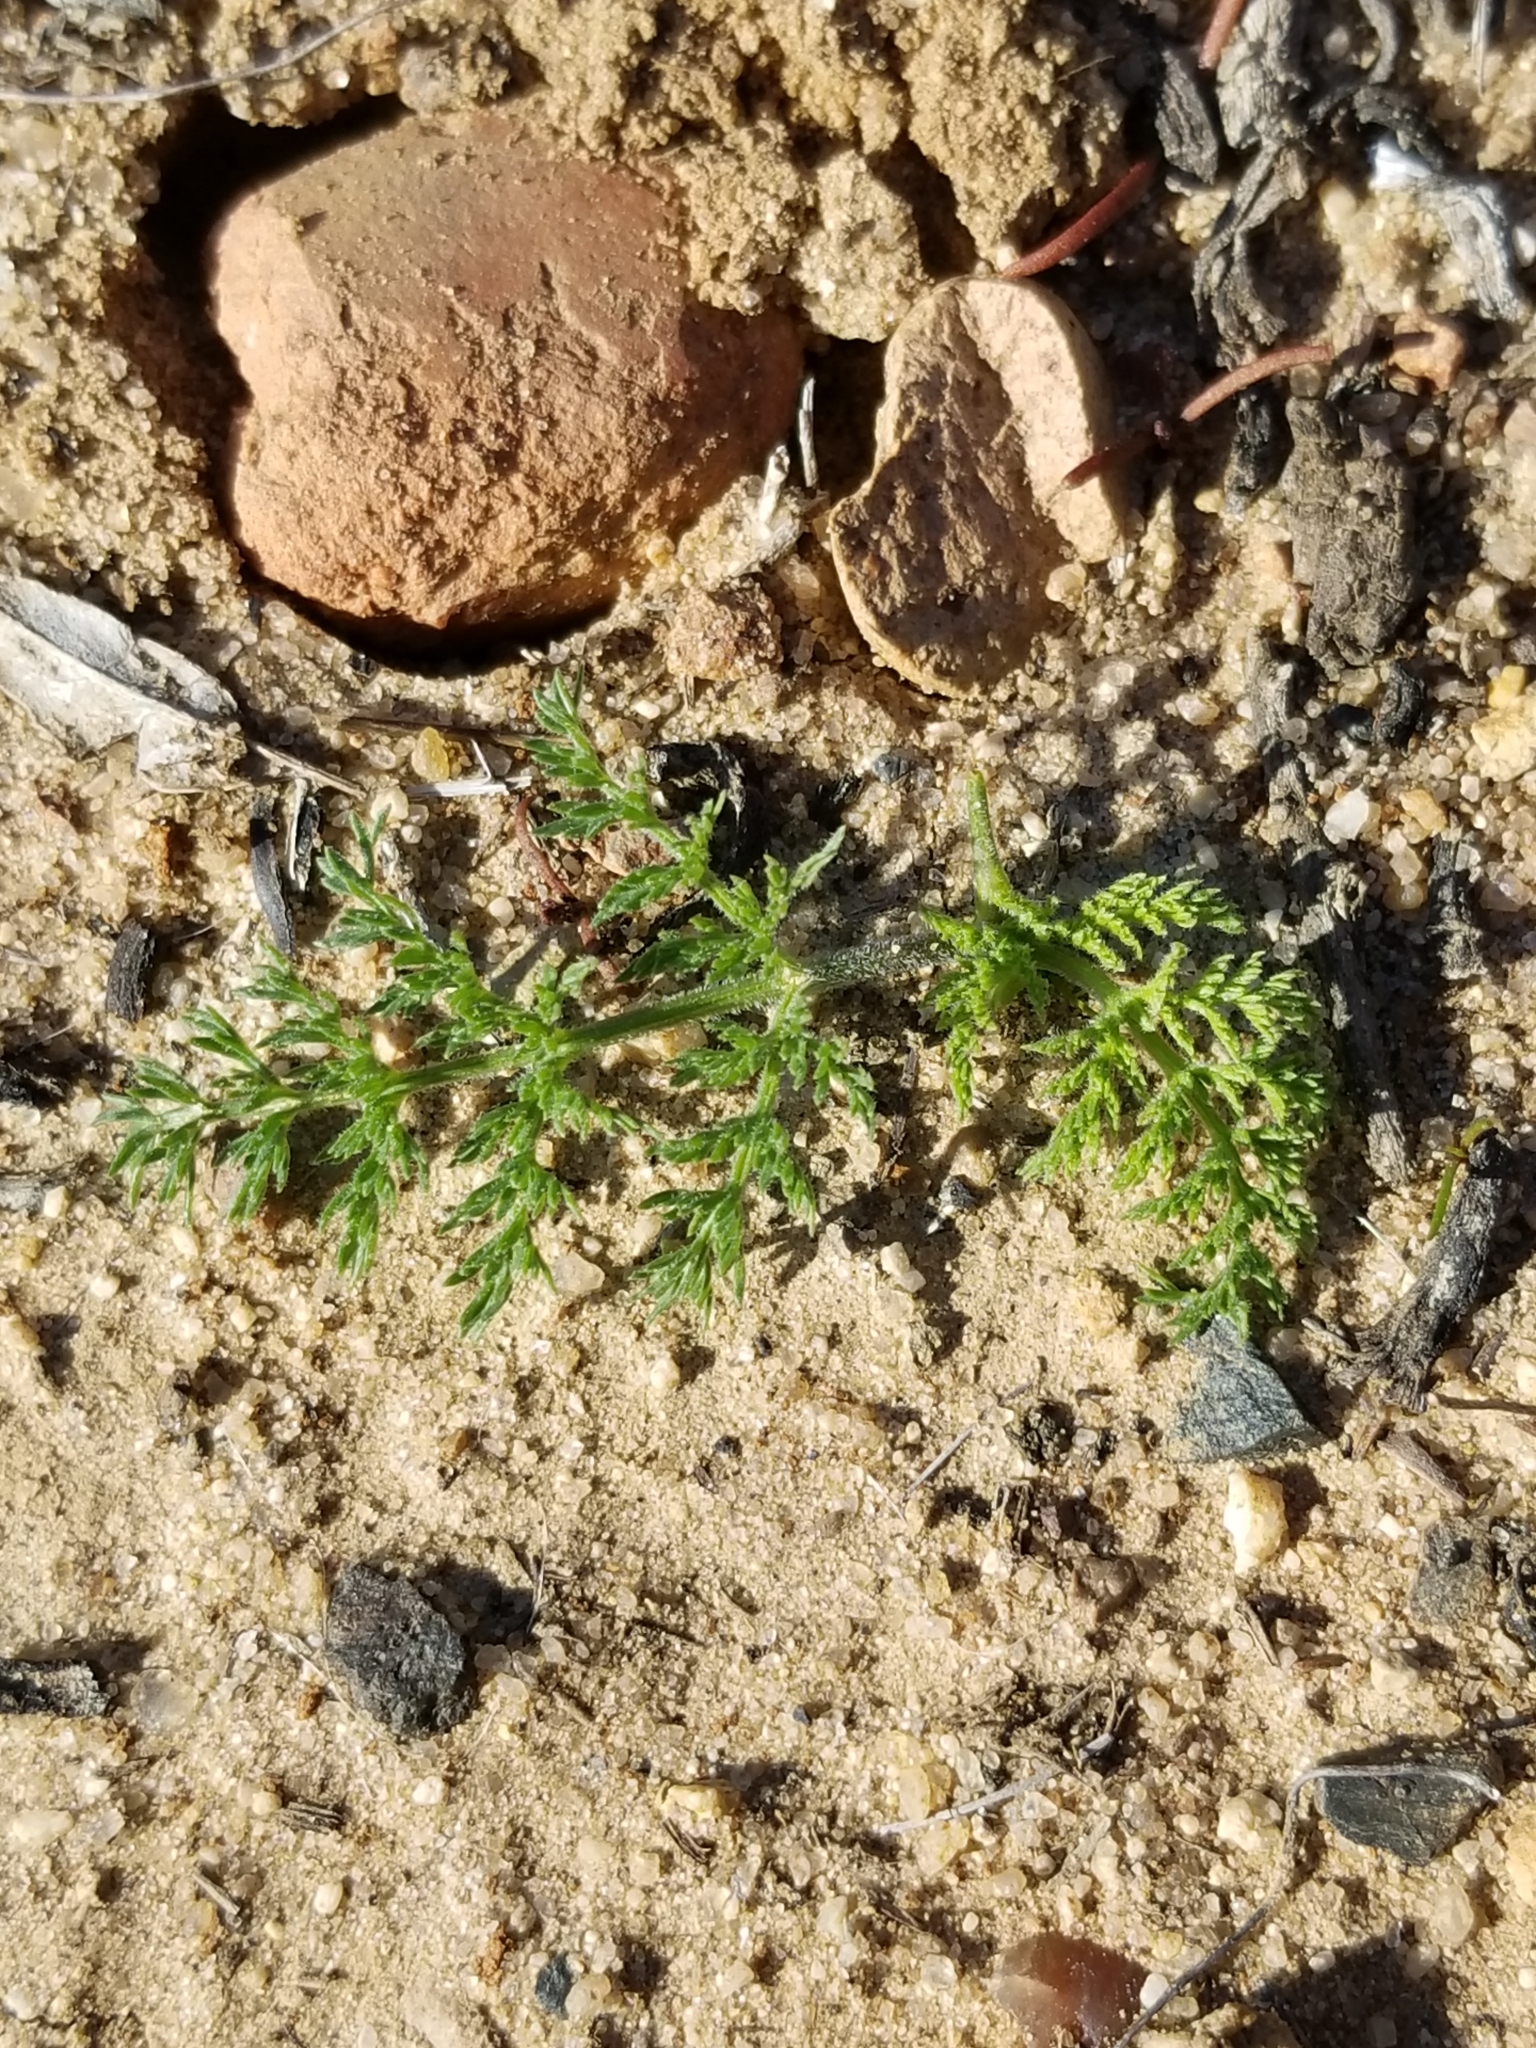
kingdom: Plantae
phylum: Tracheophyta
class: Magnoliopsida
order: Asterales
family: Asteraceae
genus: Oncosiphon
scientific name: Oncosiphon pilulifer
